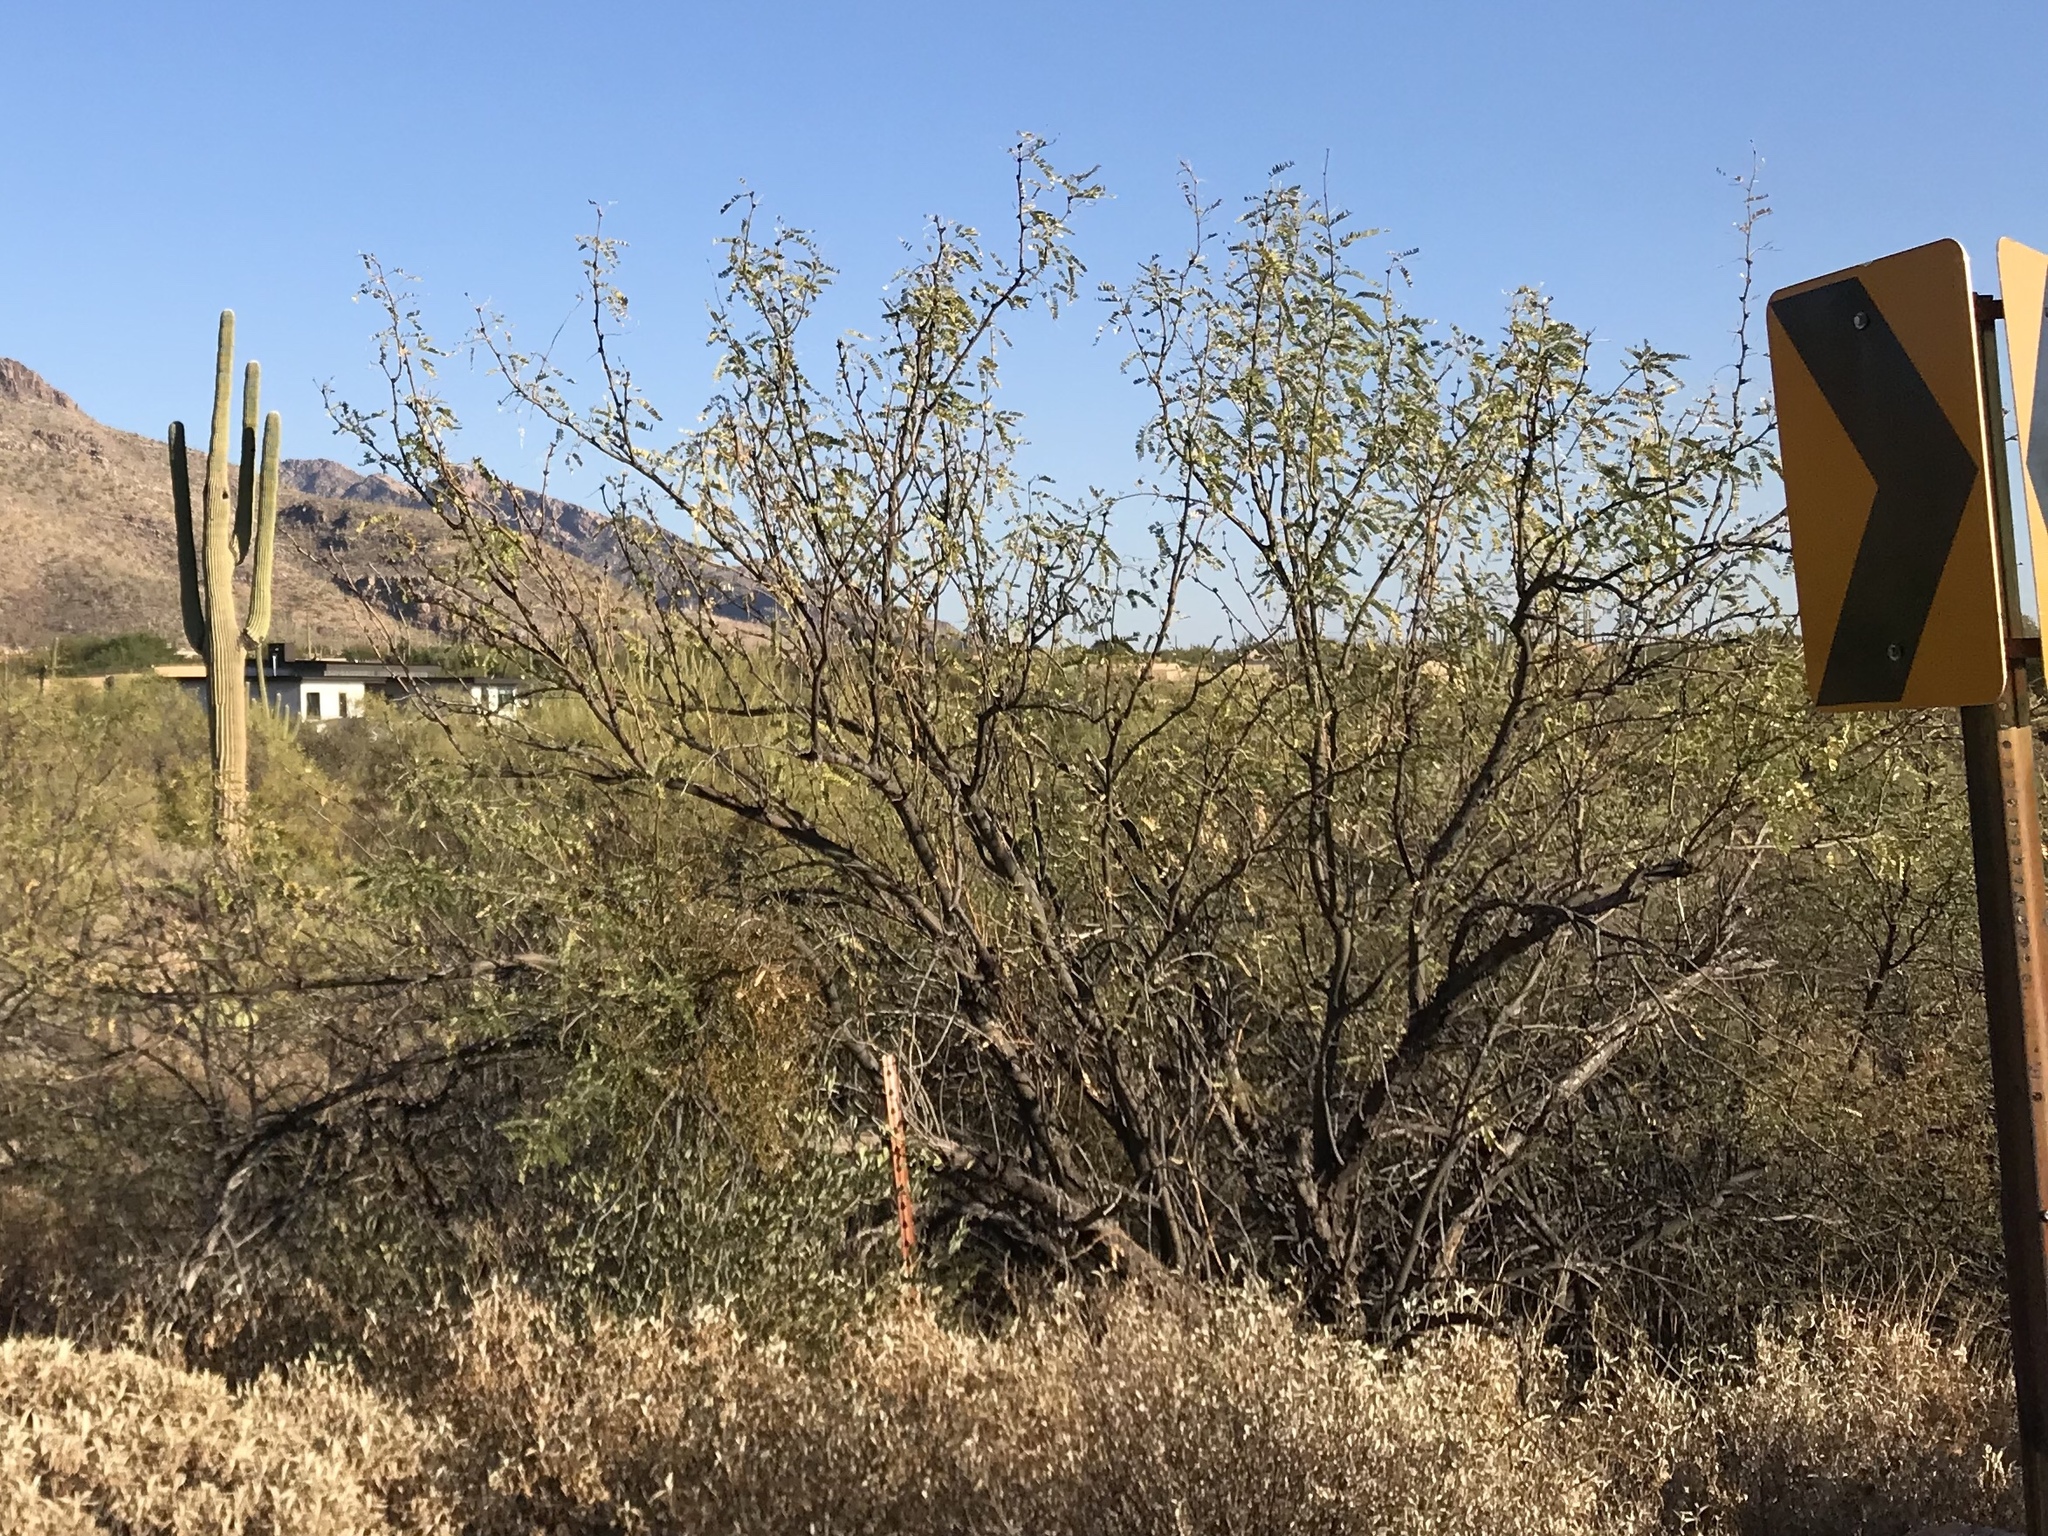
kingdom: Plantae
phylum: Tracheophyta
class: Magnoliopsida
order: Fabales
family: Fabaceae
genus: Prosopis
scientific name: Prosopis velutina
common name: Velvet mesquite
